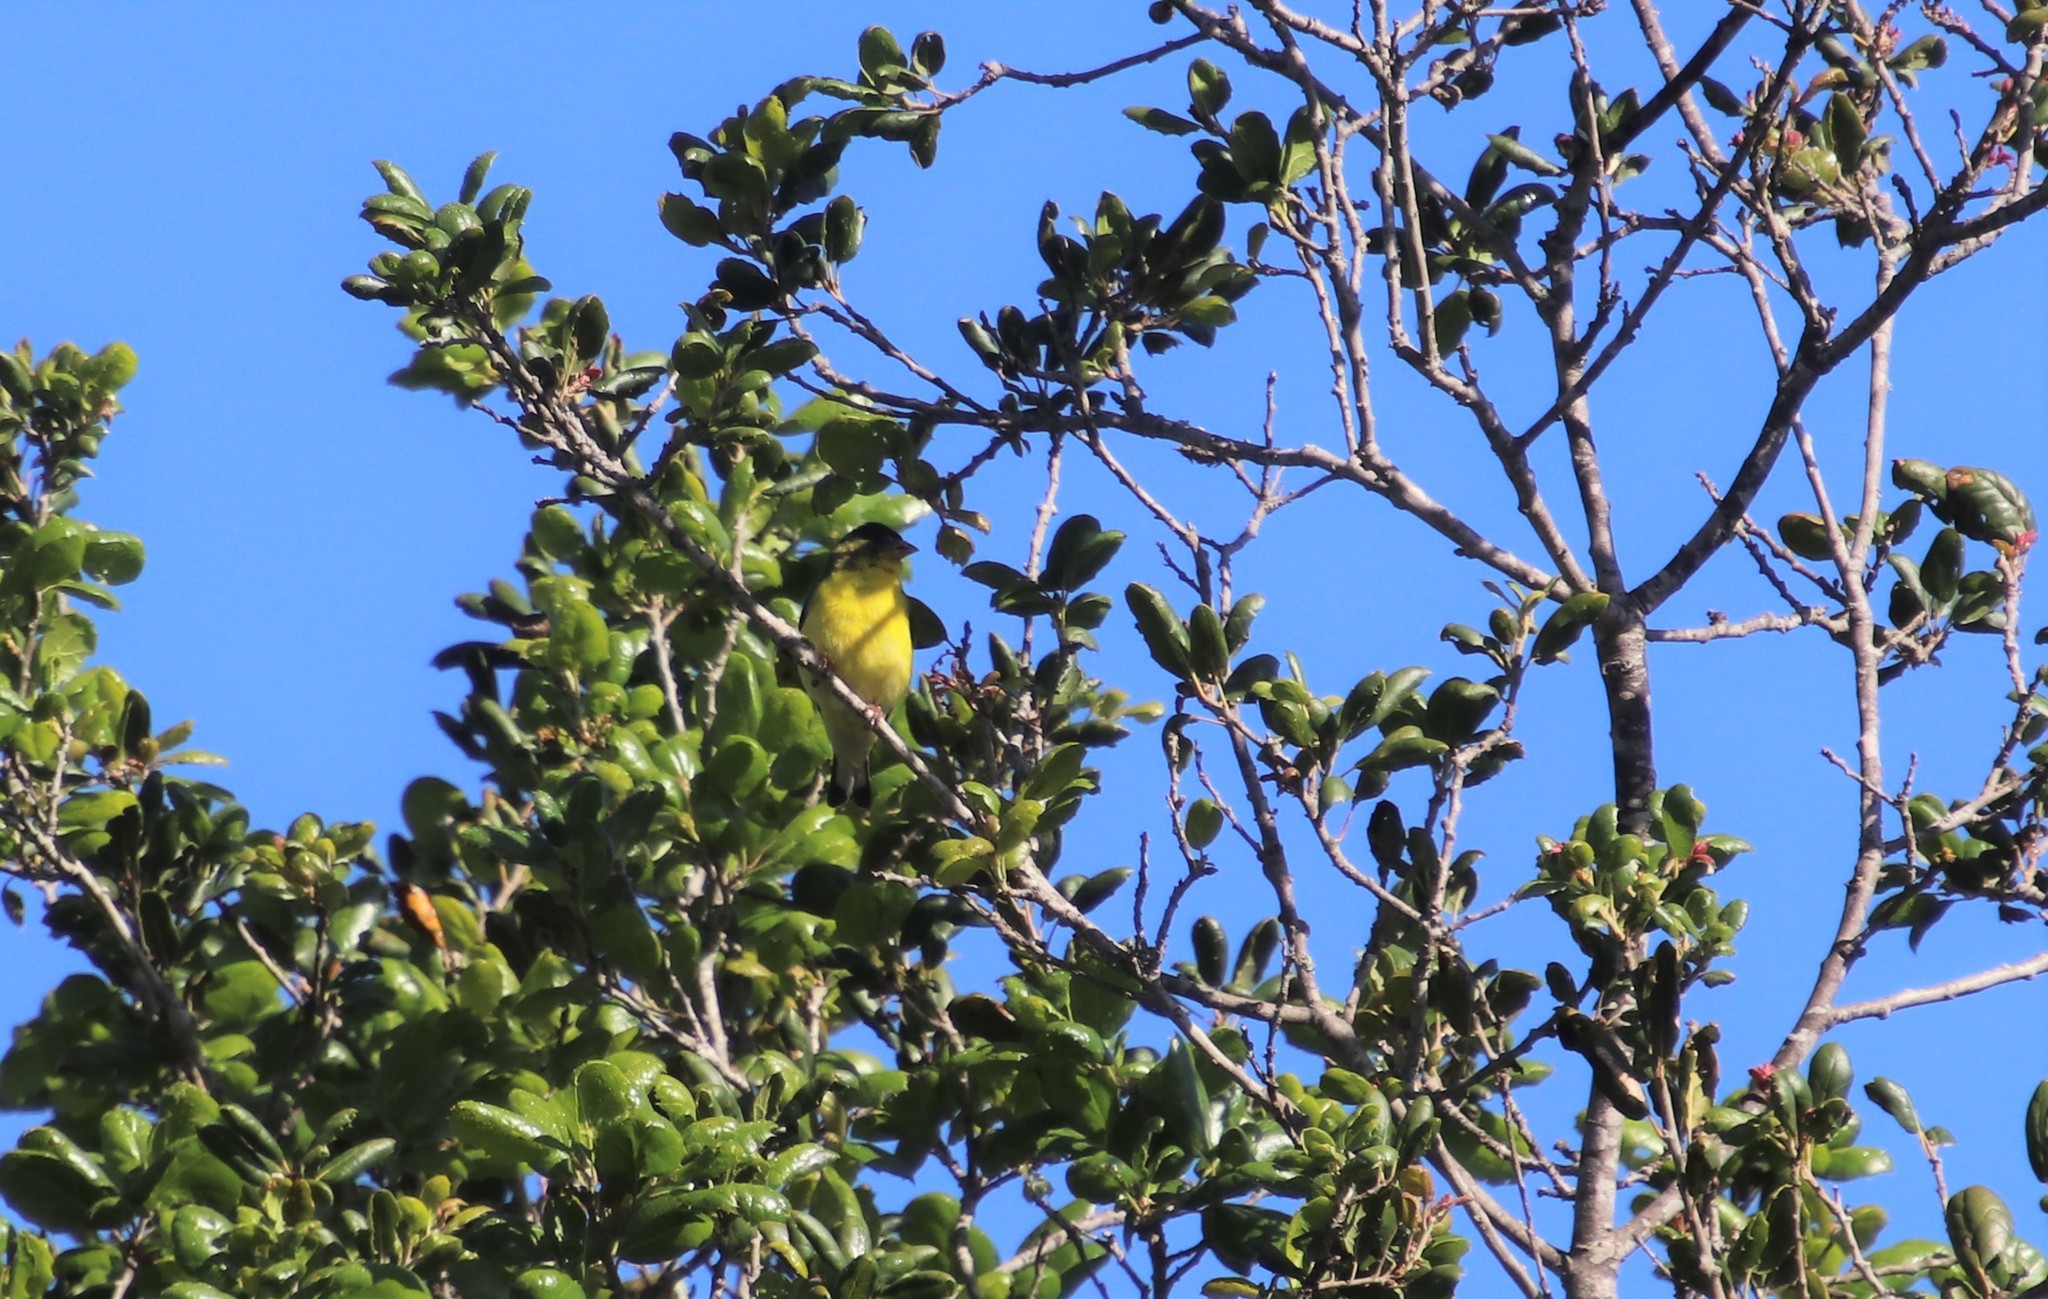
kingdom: Animalia
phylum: Chordata
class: Aves
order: Passeriformes
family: Fringillidae
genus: Spinus
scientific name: Spinus psaltria
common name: Lesser goldfinch
